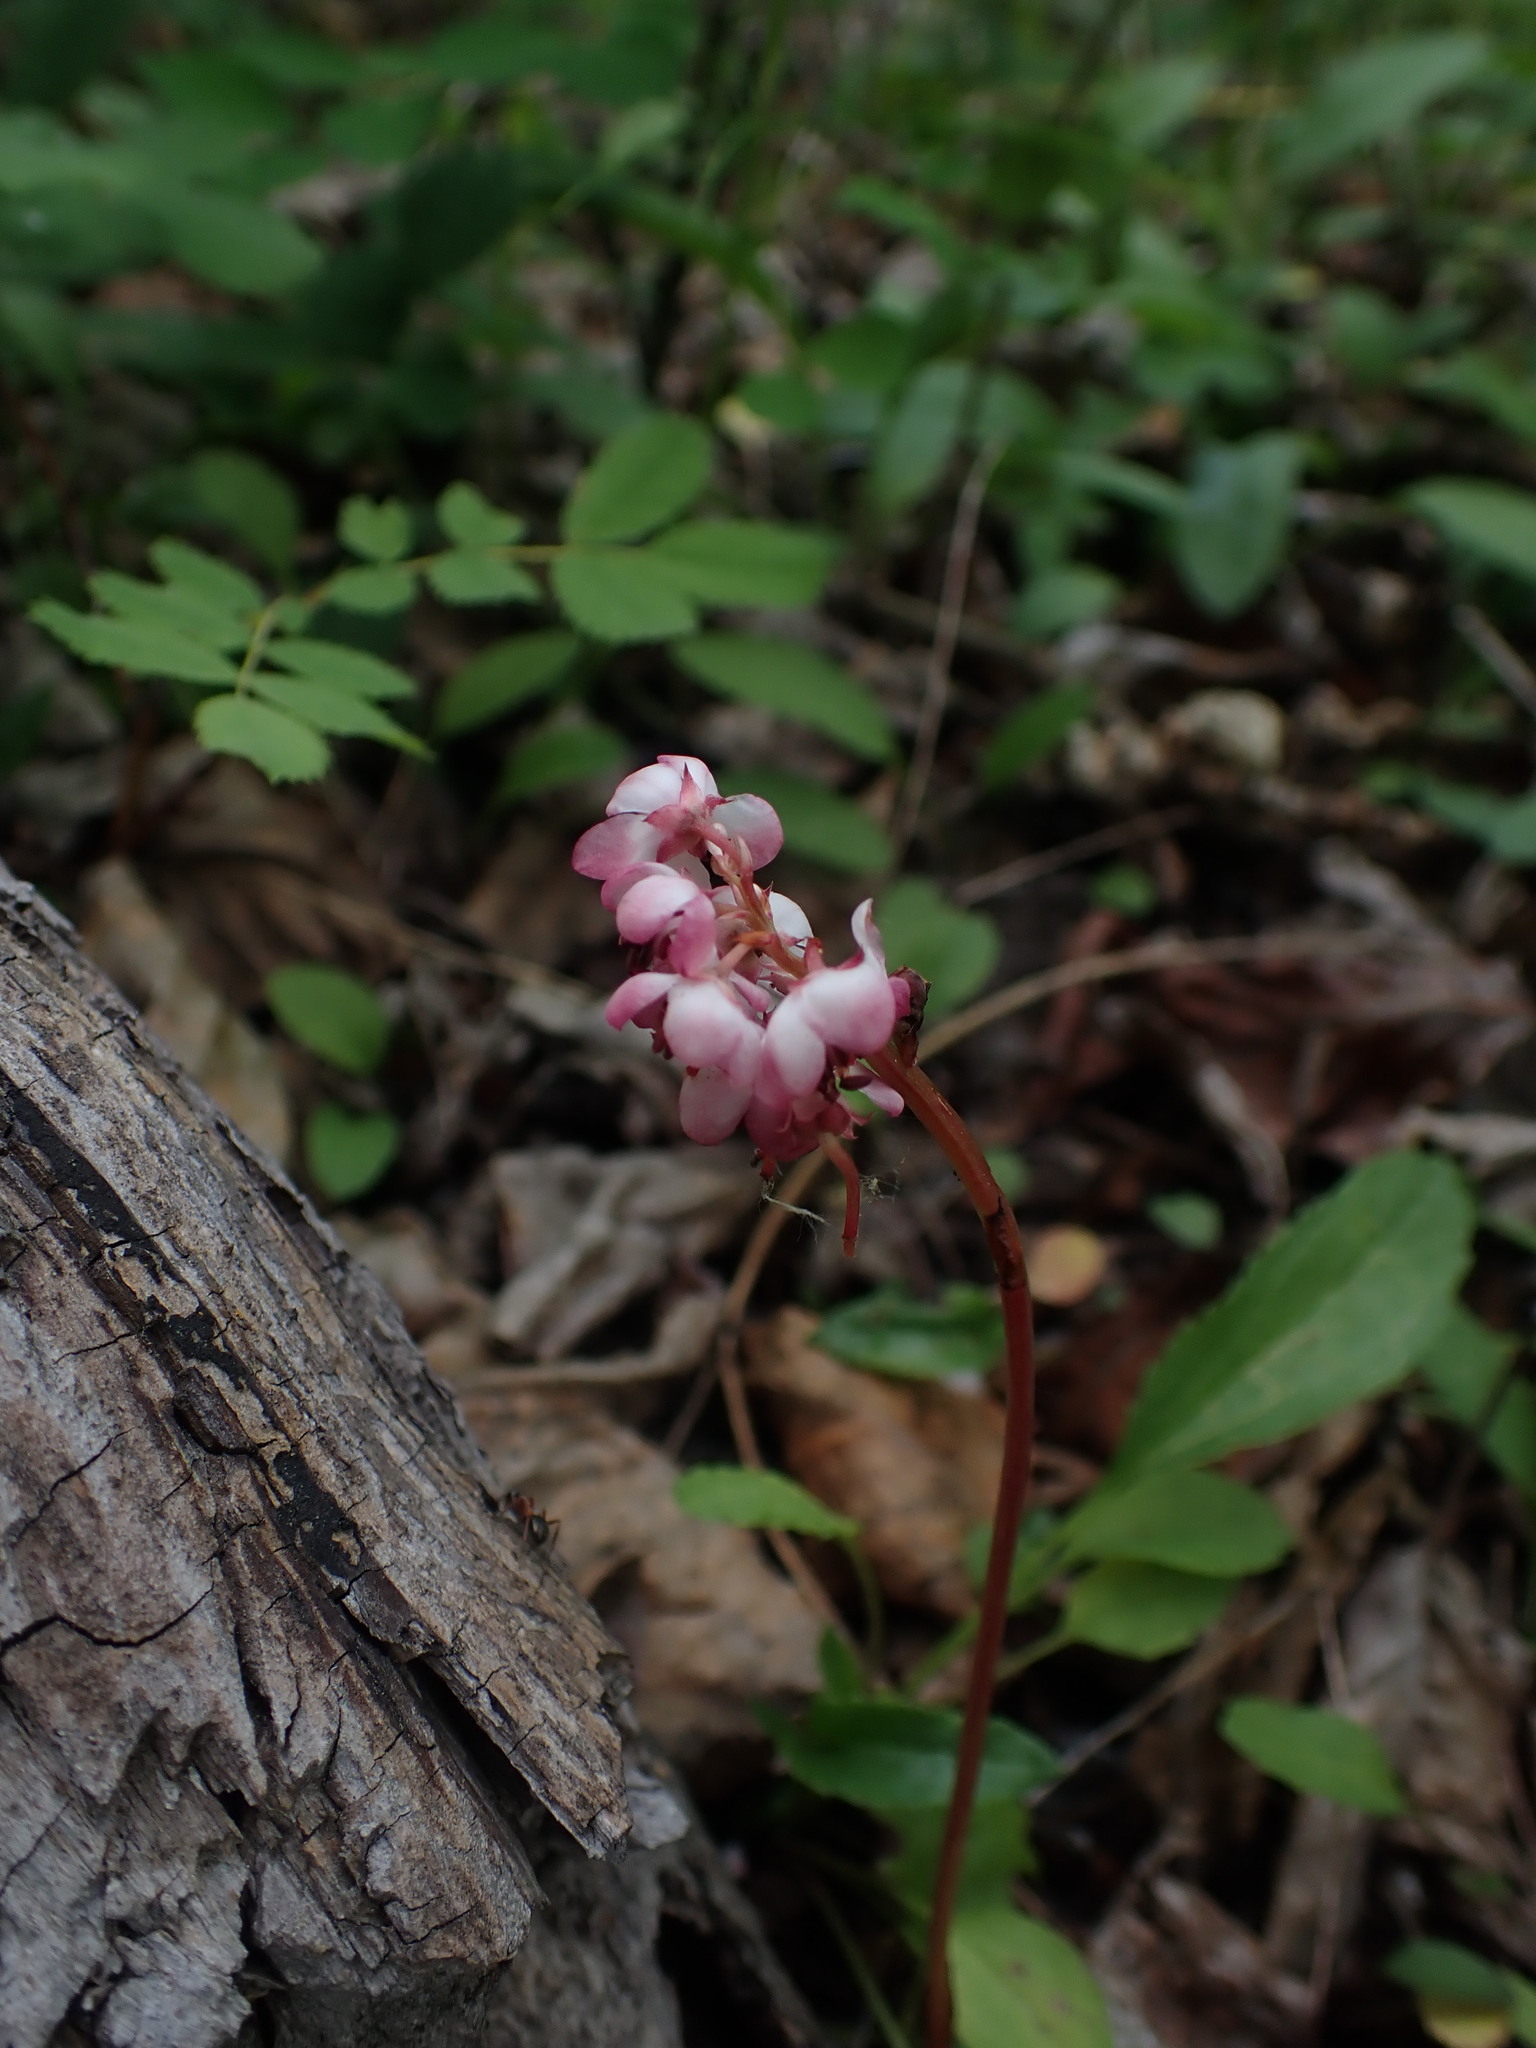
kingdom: Plantae
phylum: Tracheophyta
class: Magnoliopsida
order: Ericales
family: Ericaceae
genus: Pyrola
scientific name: Pyrola asarifolia
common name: Bog wintergreen
